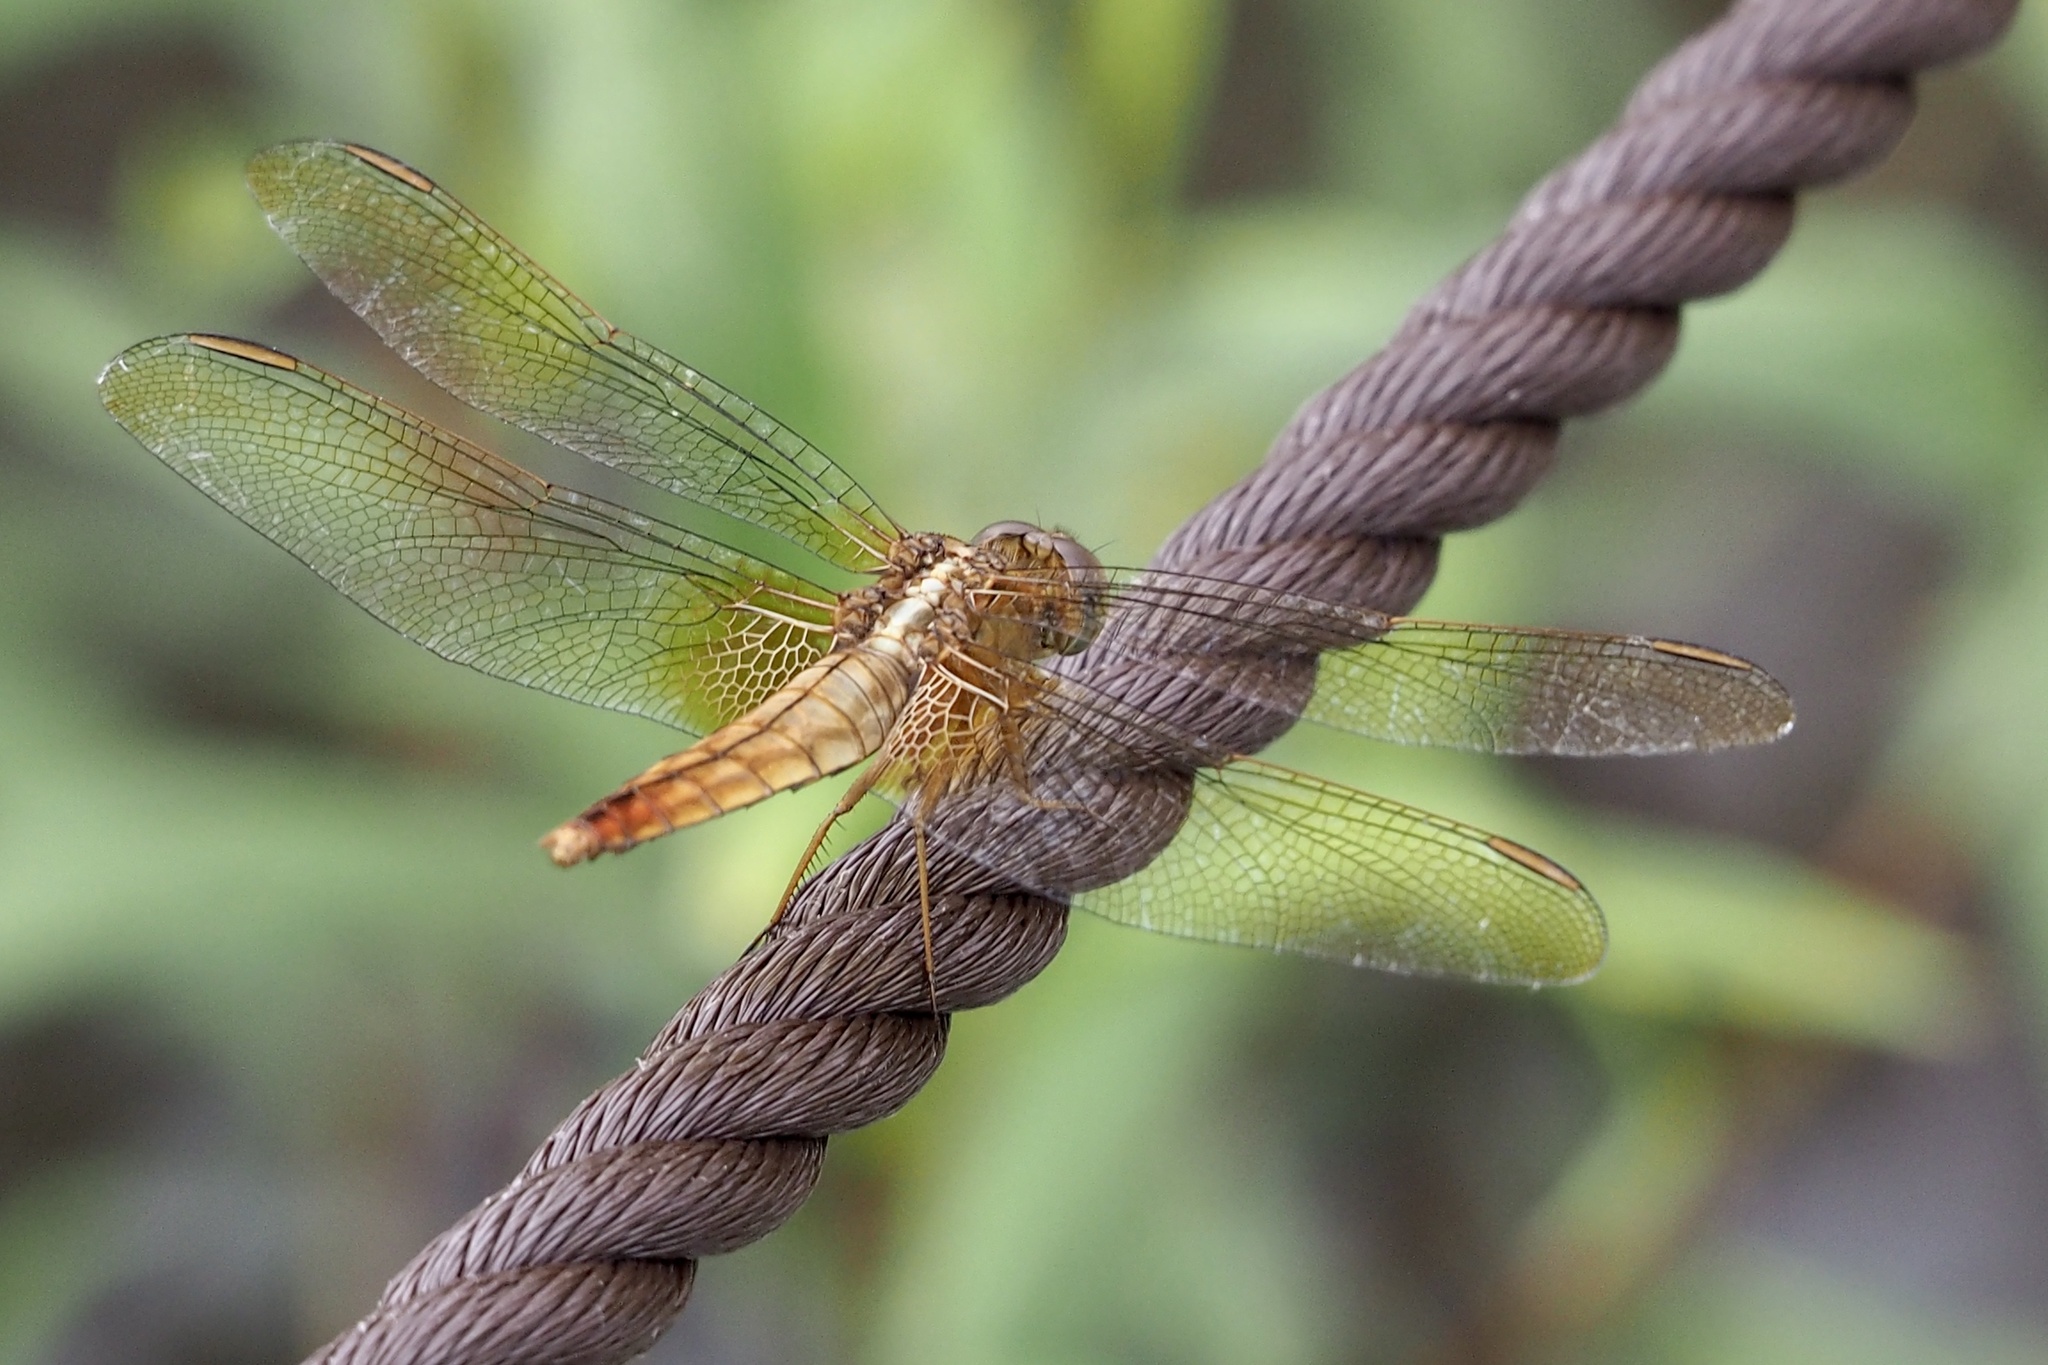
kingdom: Animalia
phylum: Arthropoda
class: Insecta
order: Odonata
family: Libellulidae
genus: Crocothemis
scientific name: Crocothemis servilia
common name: Scarlet skimmer
